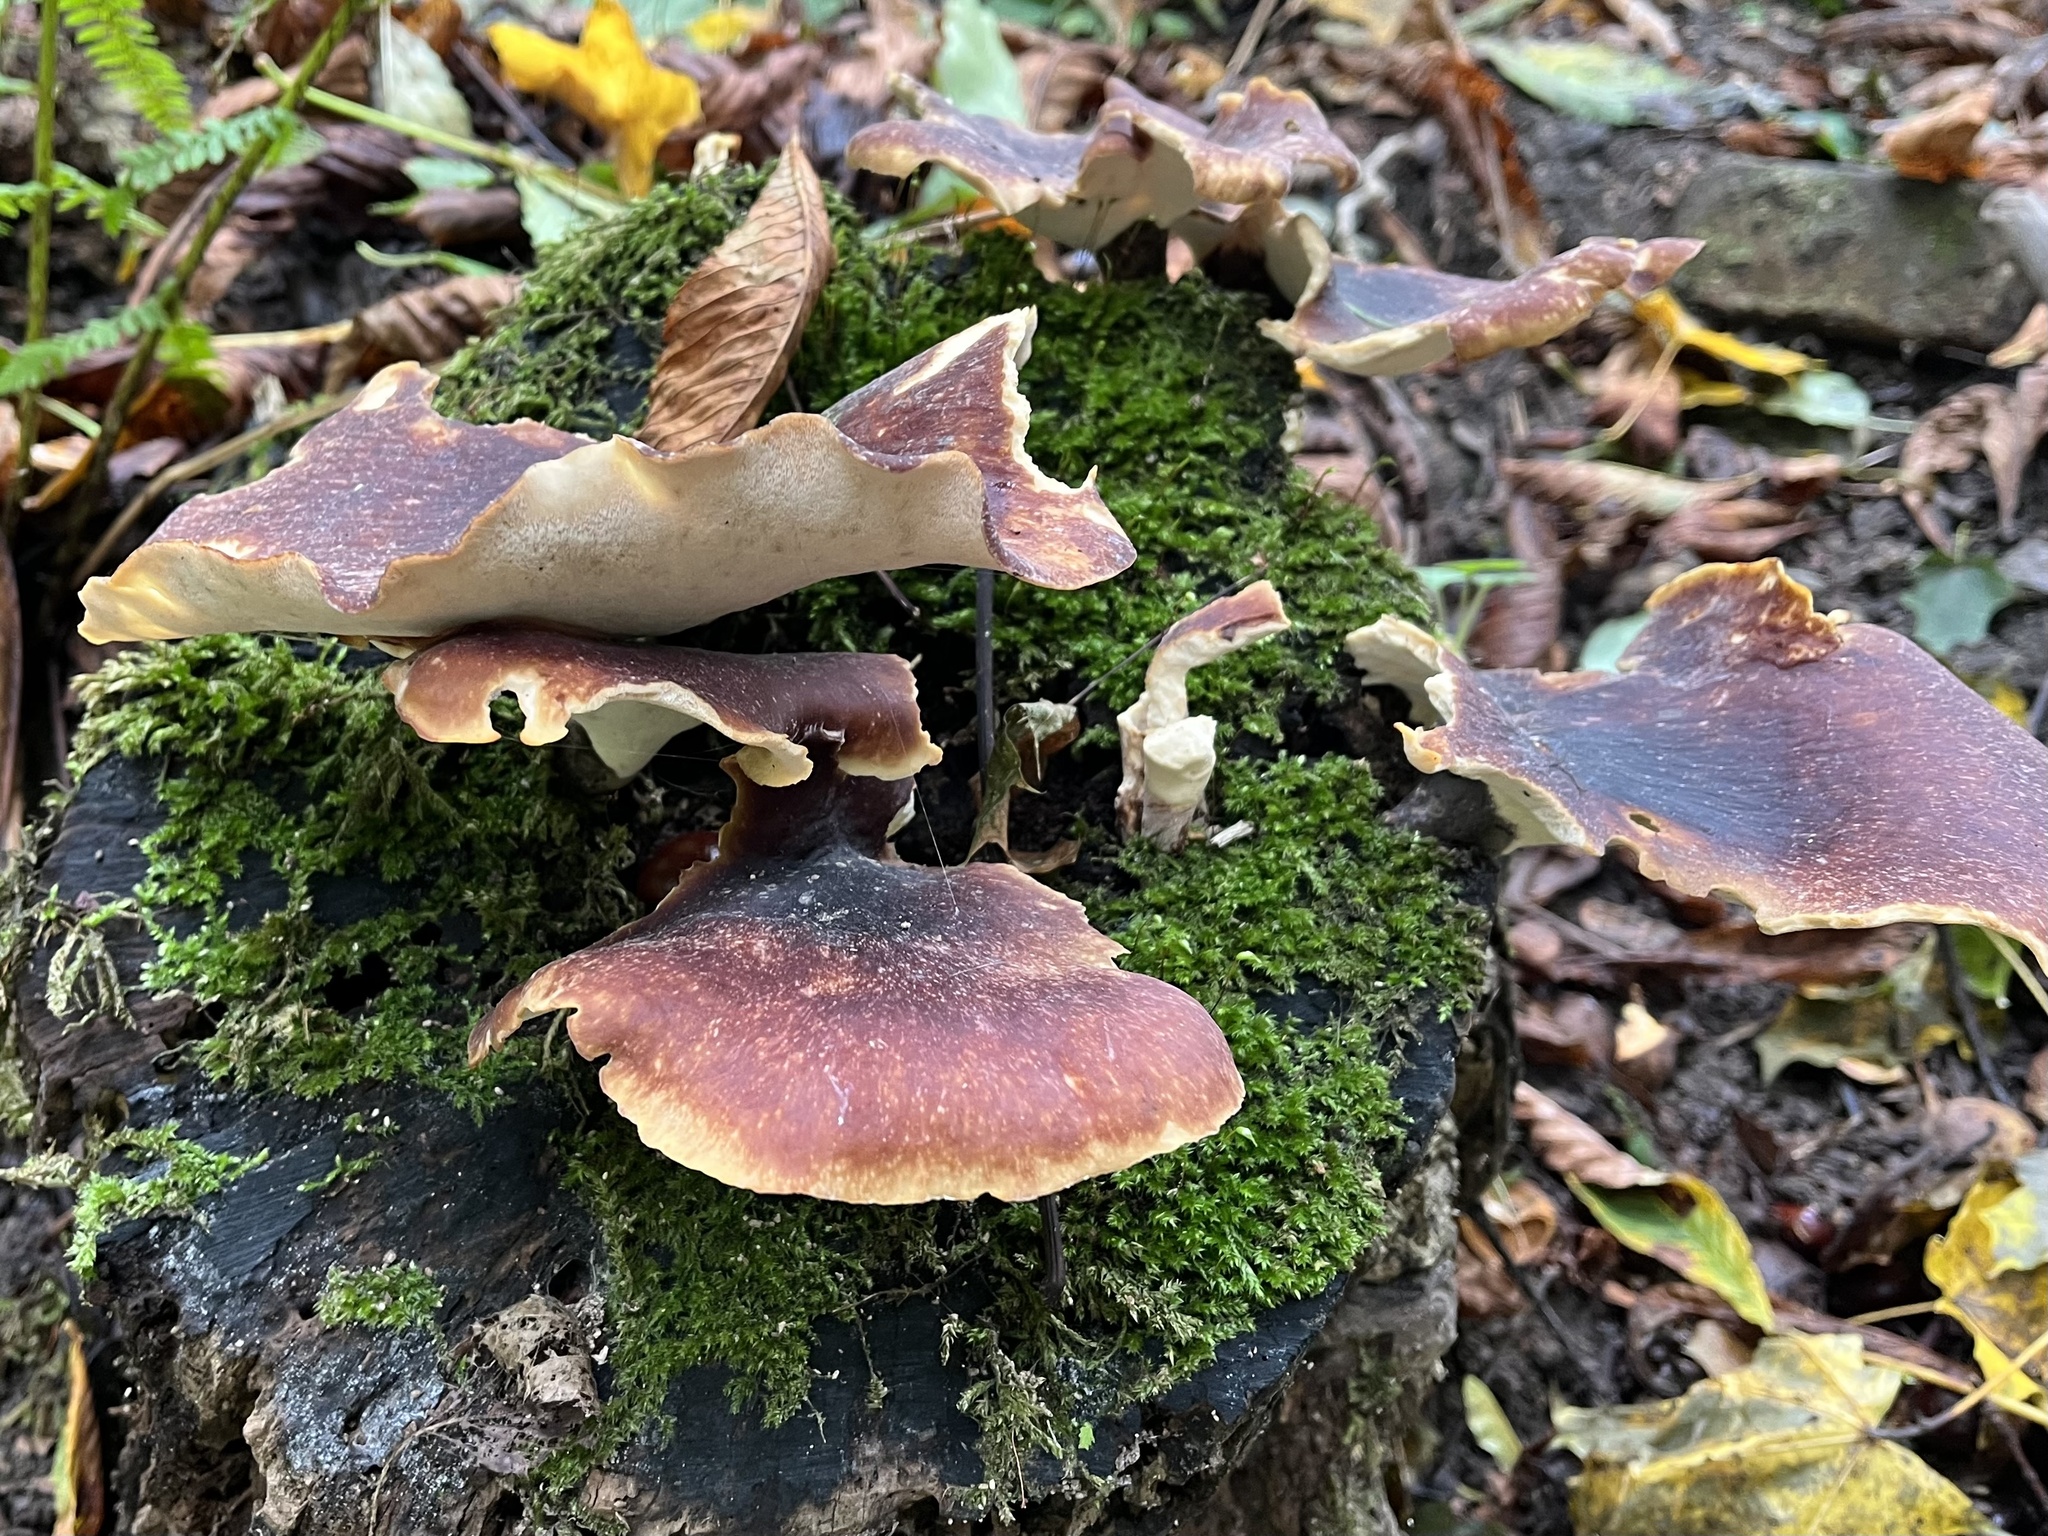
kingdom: Fungi
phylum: Basidiomycota
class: Agaricomycetes
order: Polyporales
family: Polyporaceae
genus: Picipes
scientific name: Picipes badius
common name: Bay polypore
